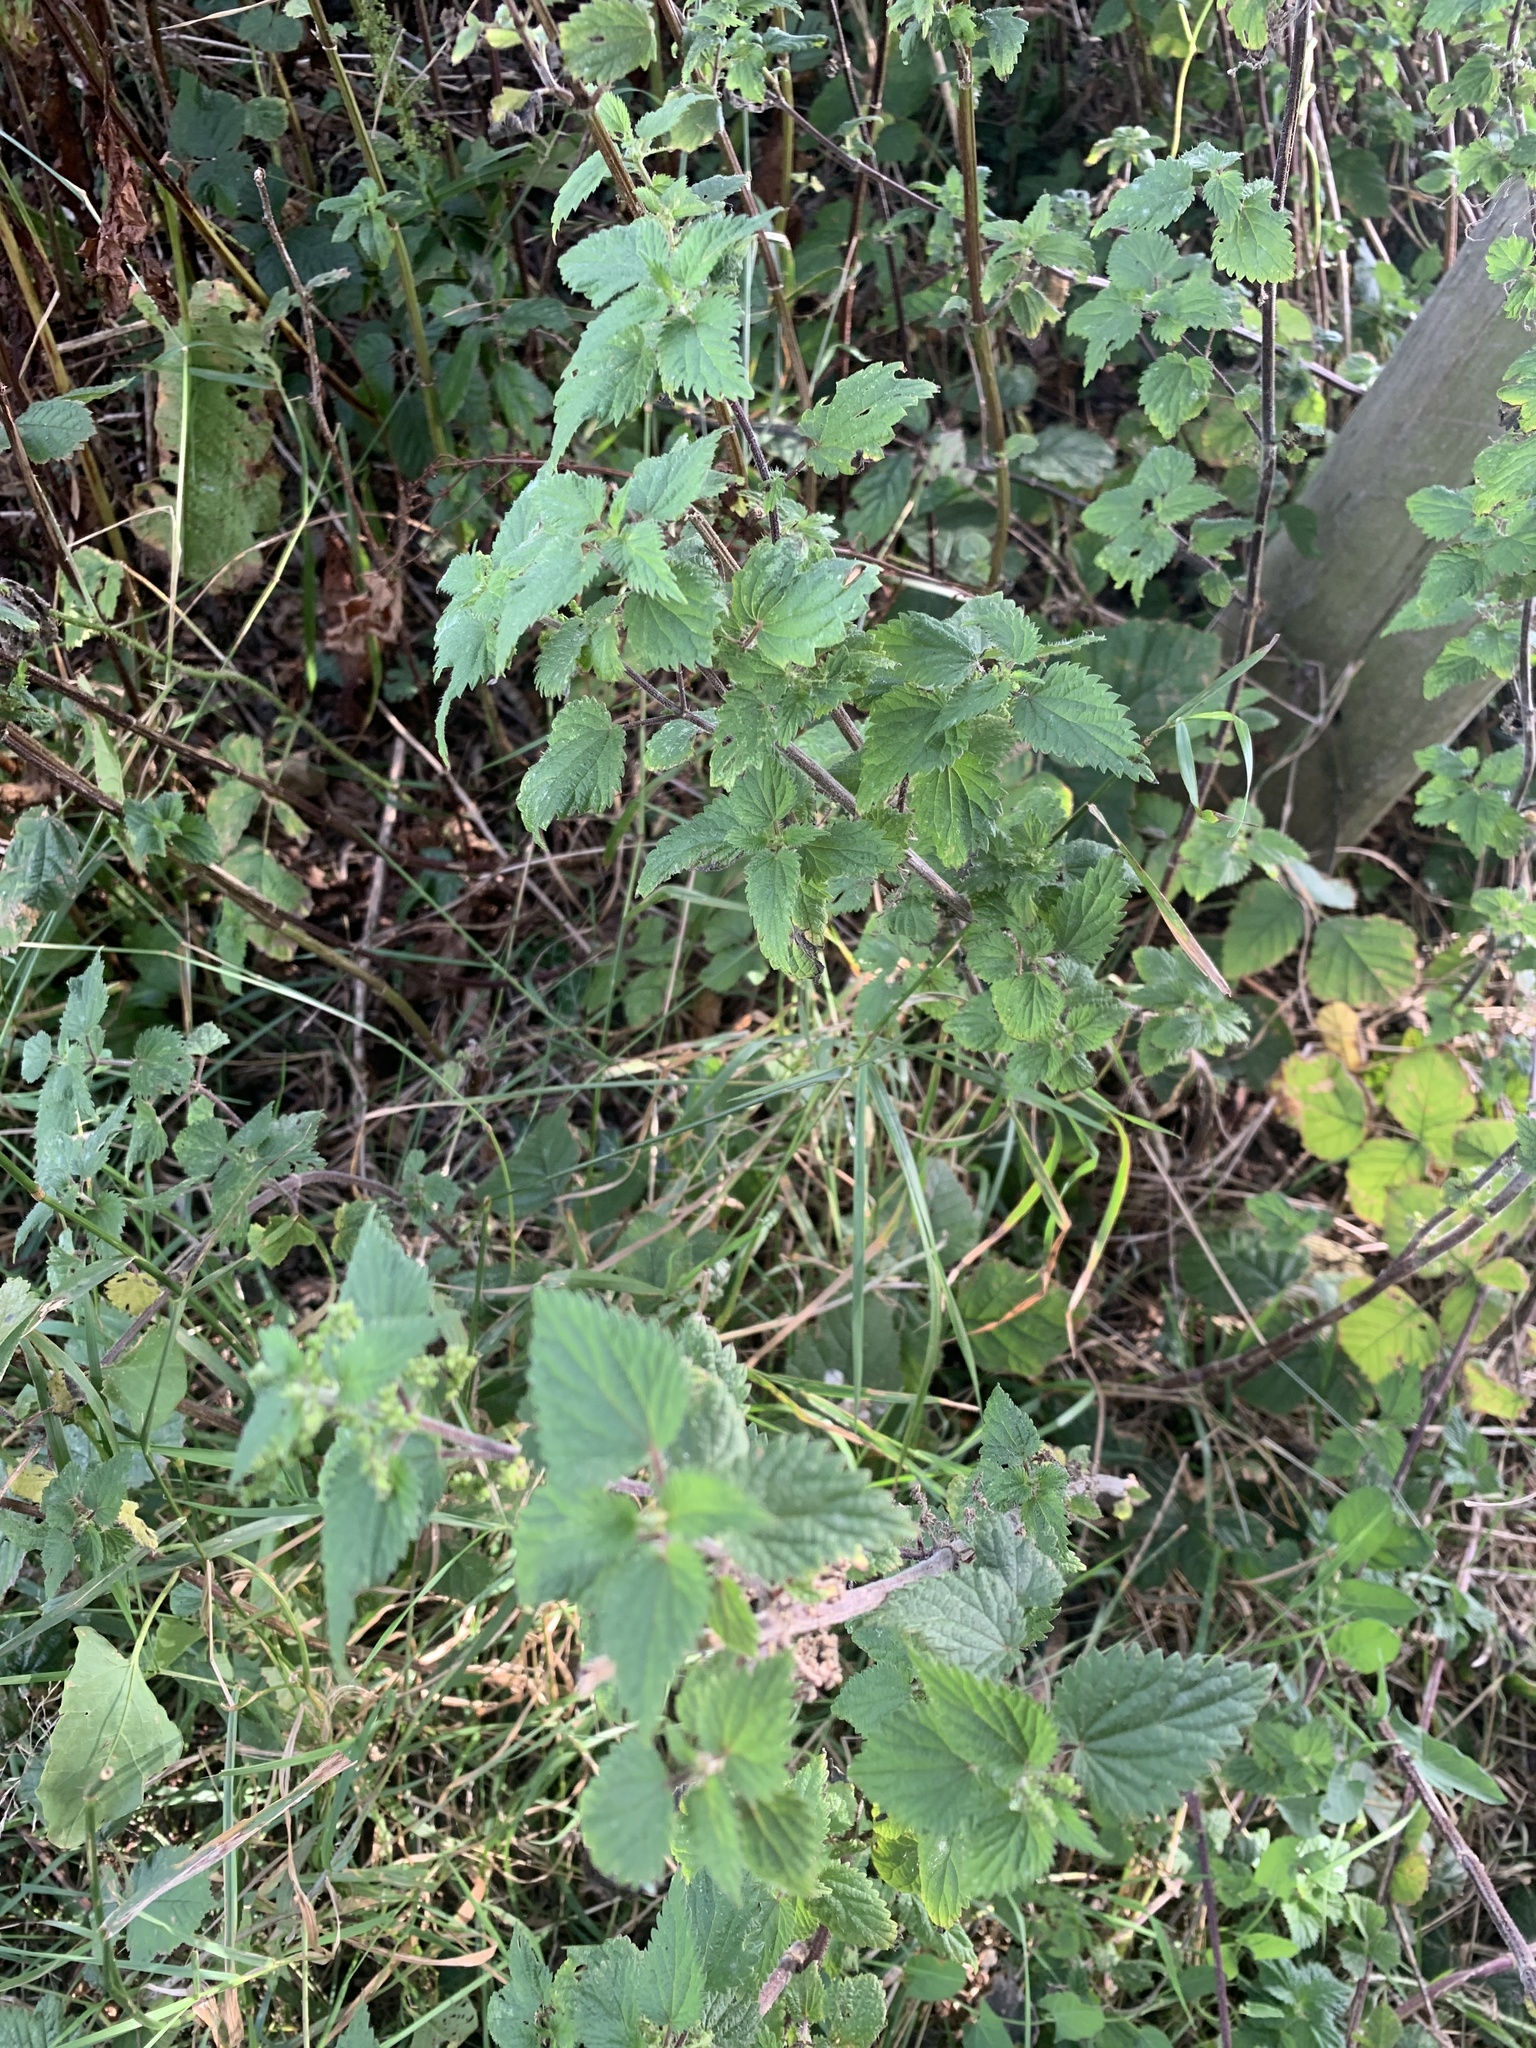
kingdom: Plantae
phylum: Tracheophyta
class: Magnoliopsida
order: Rosales
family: Urticaceae
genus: Urtica
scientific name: Urtica dioica
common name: Common nettle
